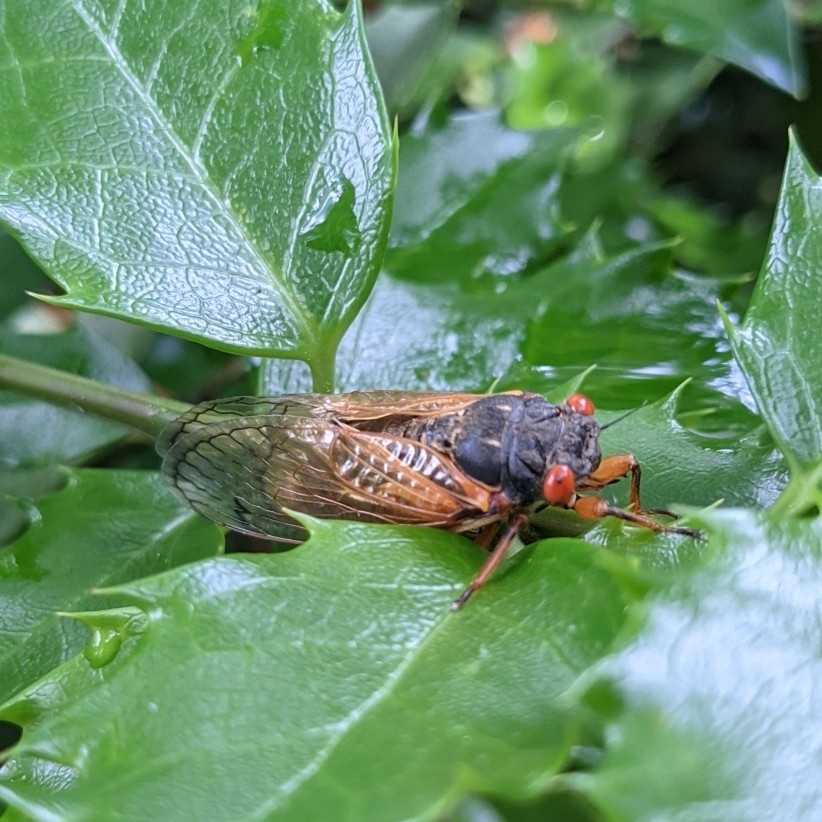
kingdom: Animalia
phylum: Arthropoda
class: Insecta
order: Hemiptera
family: Cicadidae
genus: Magicicada
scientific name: Magicicada cassini
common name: Cassin's 17-year cicada
